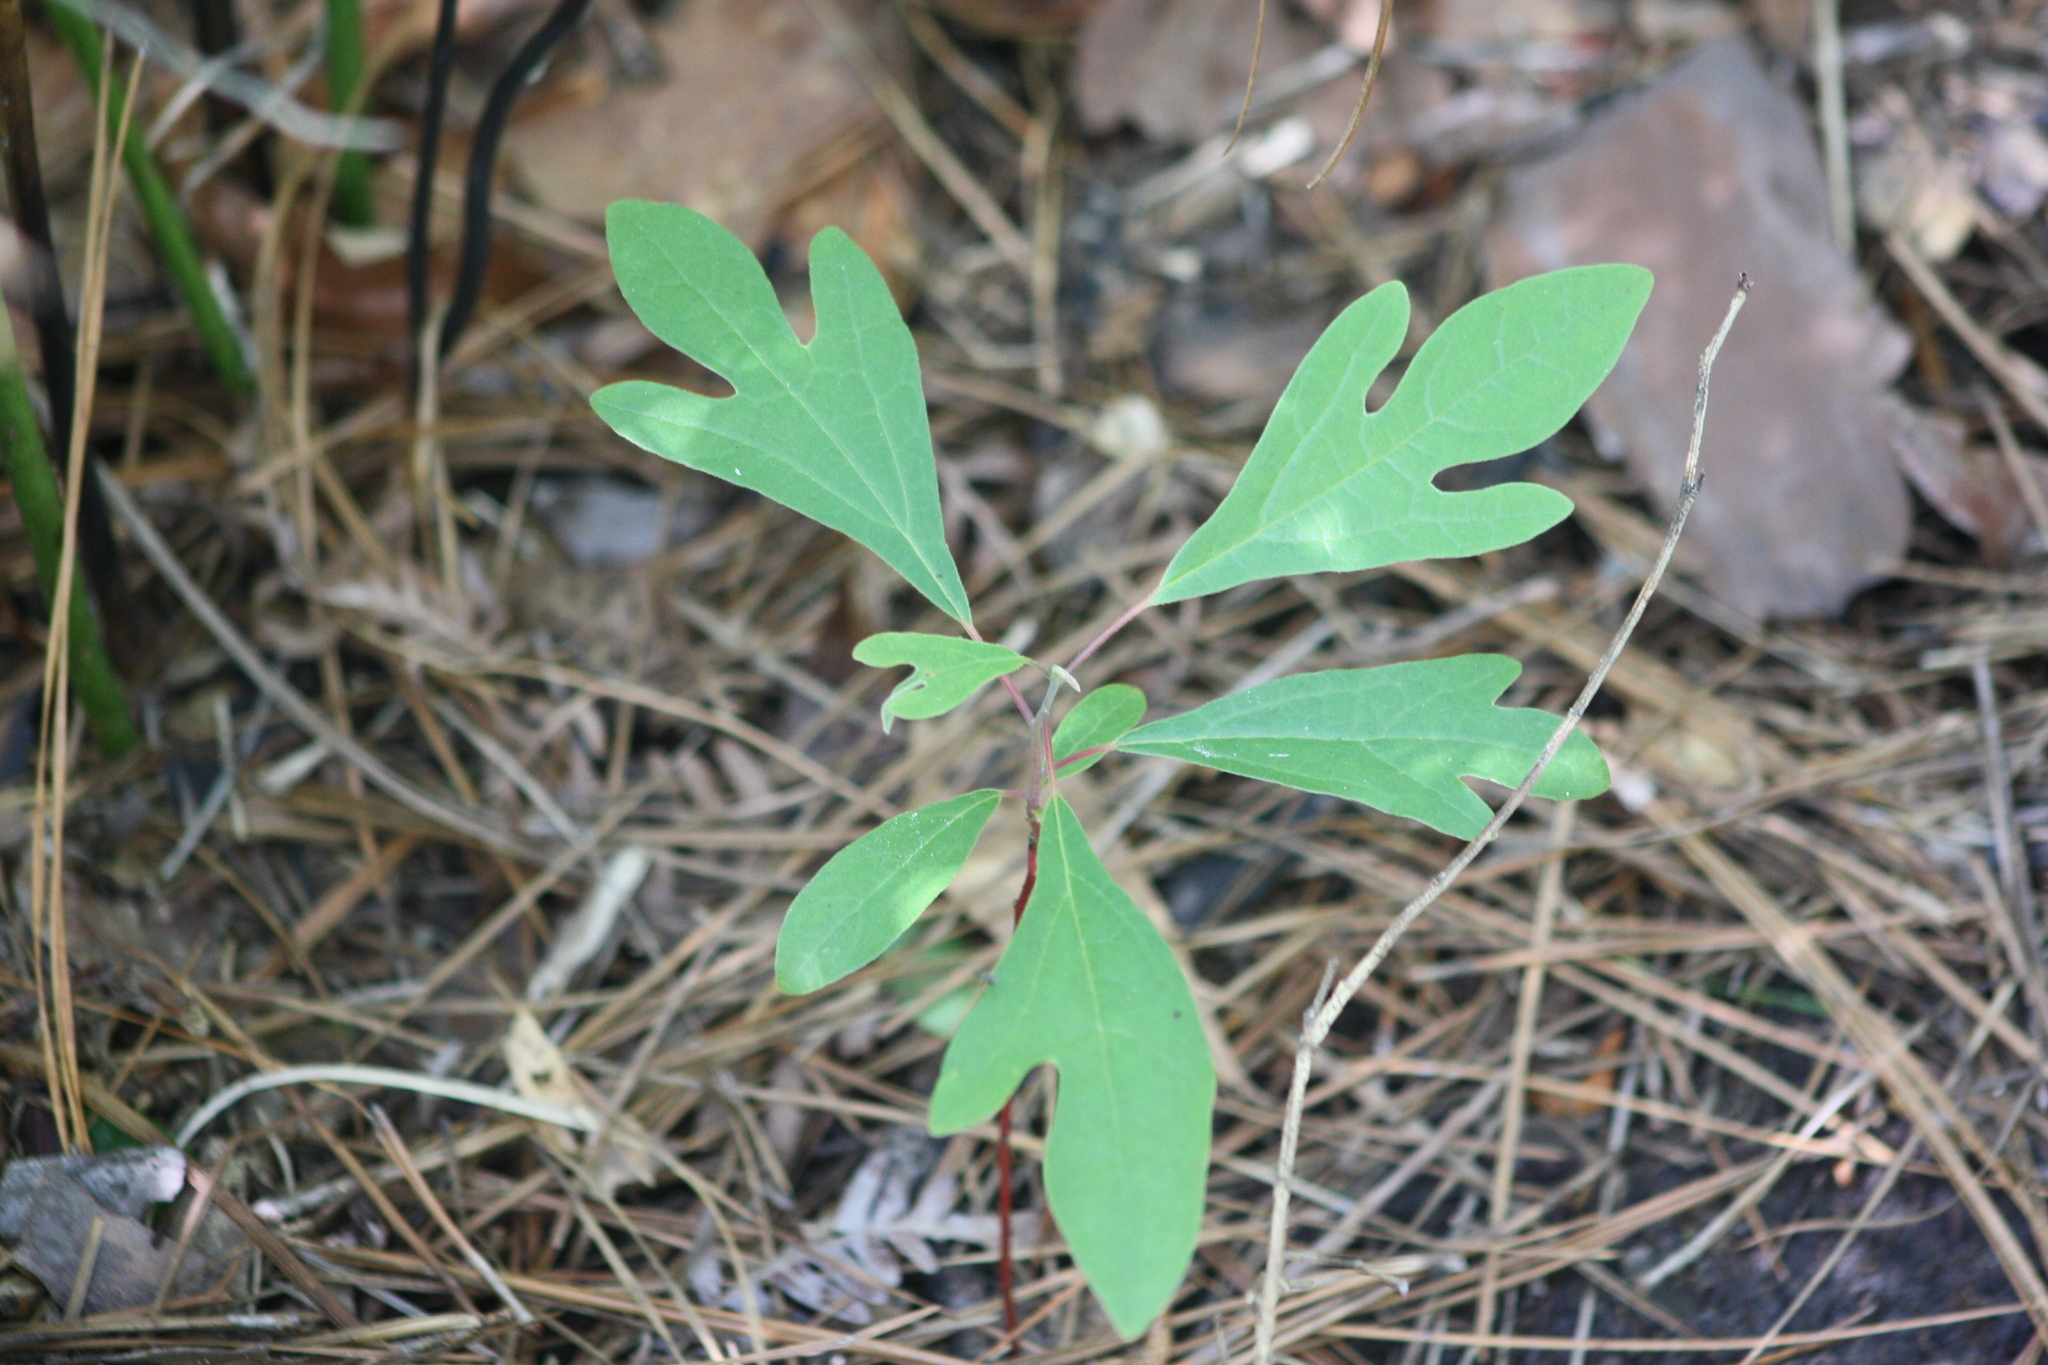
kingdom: Plantae
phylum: Tracheophyta
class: Magnoliopsida
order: Laurales
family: Lauraceae
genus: Sassafras
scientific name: Sassafras albidum
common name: Sassafras
